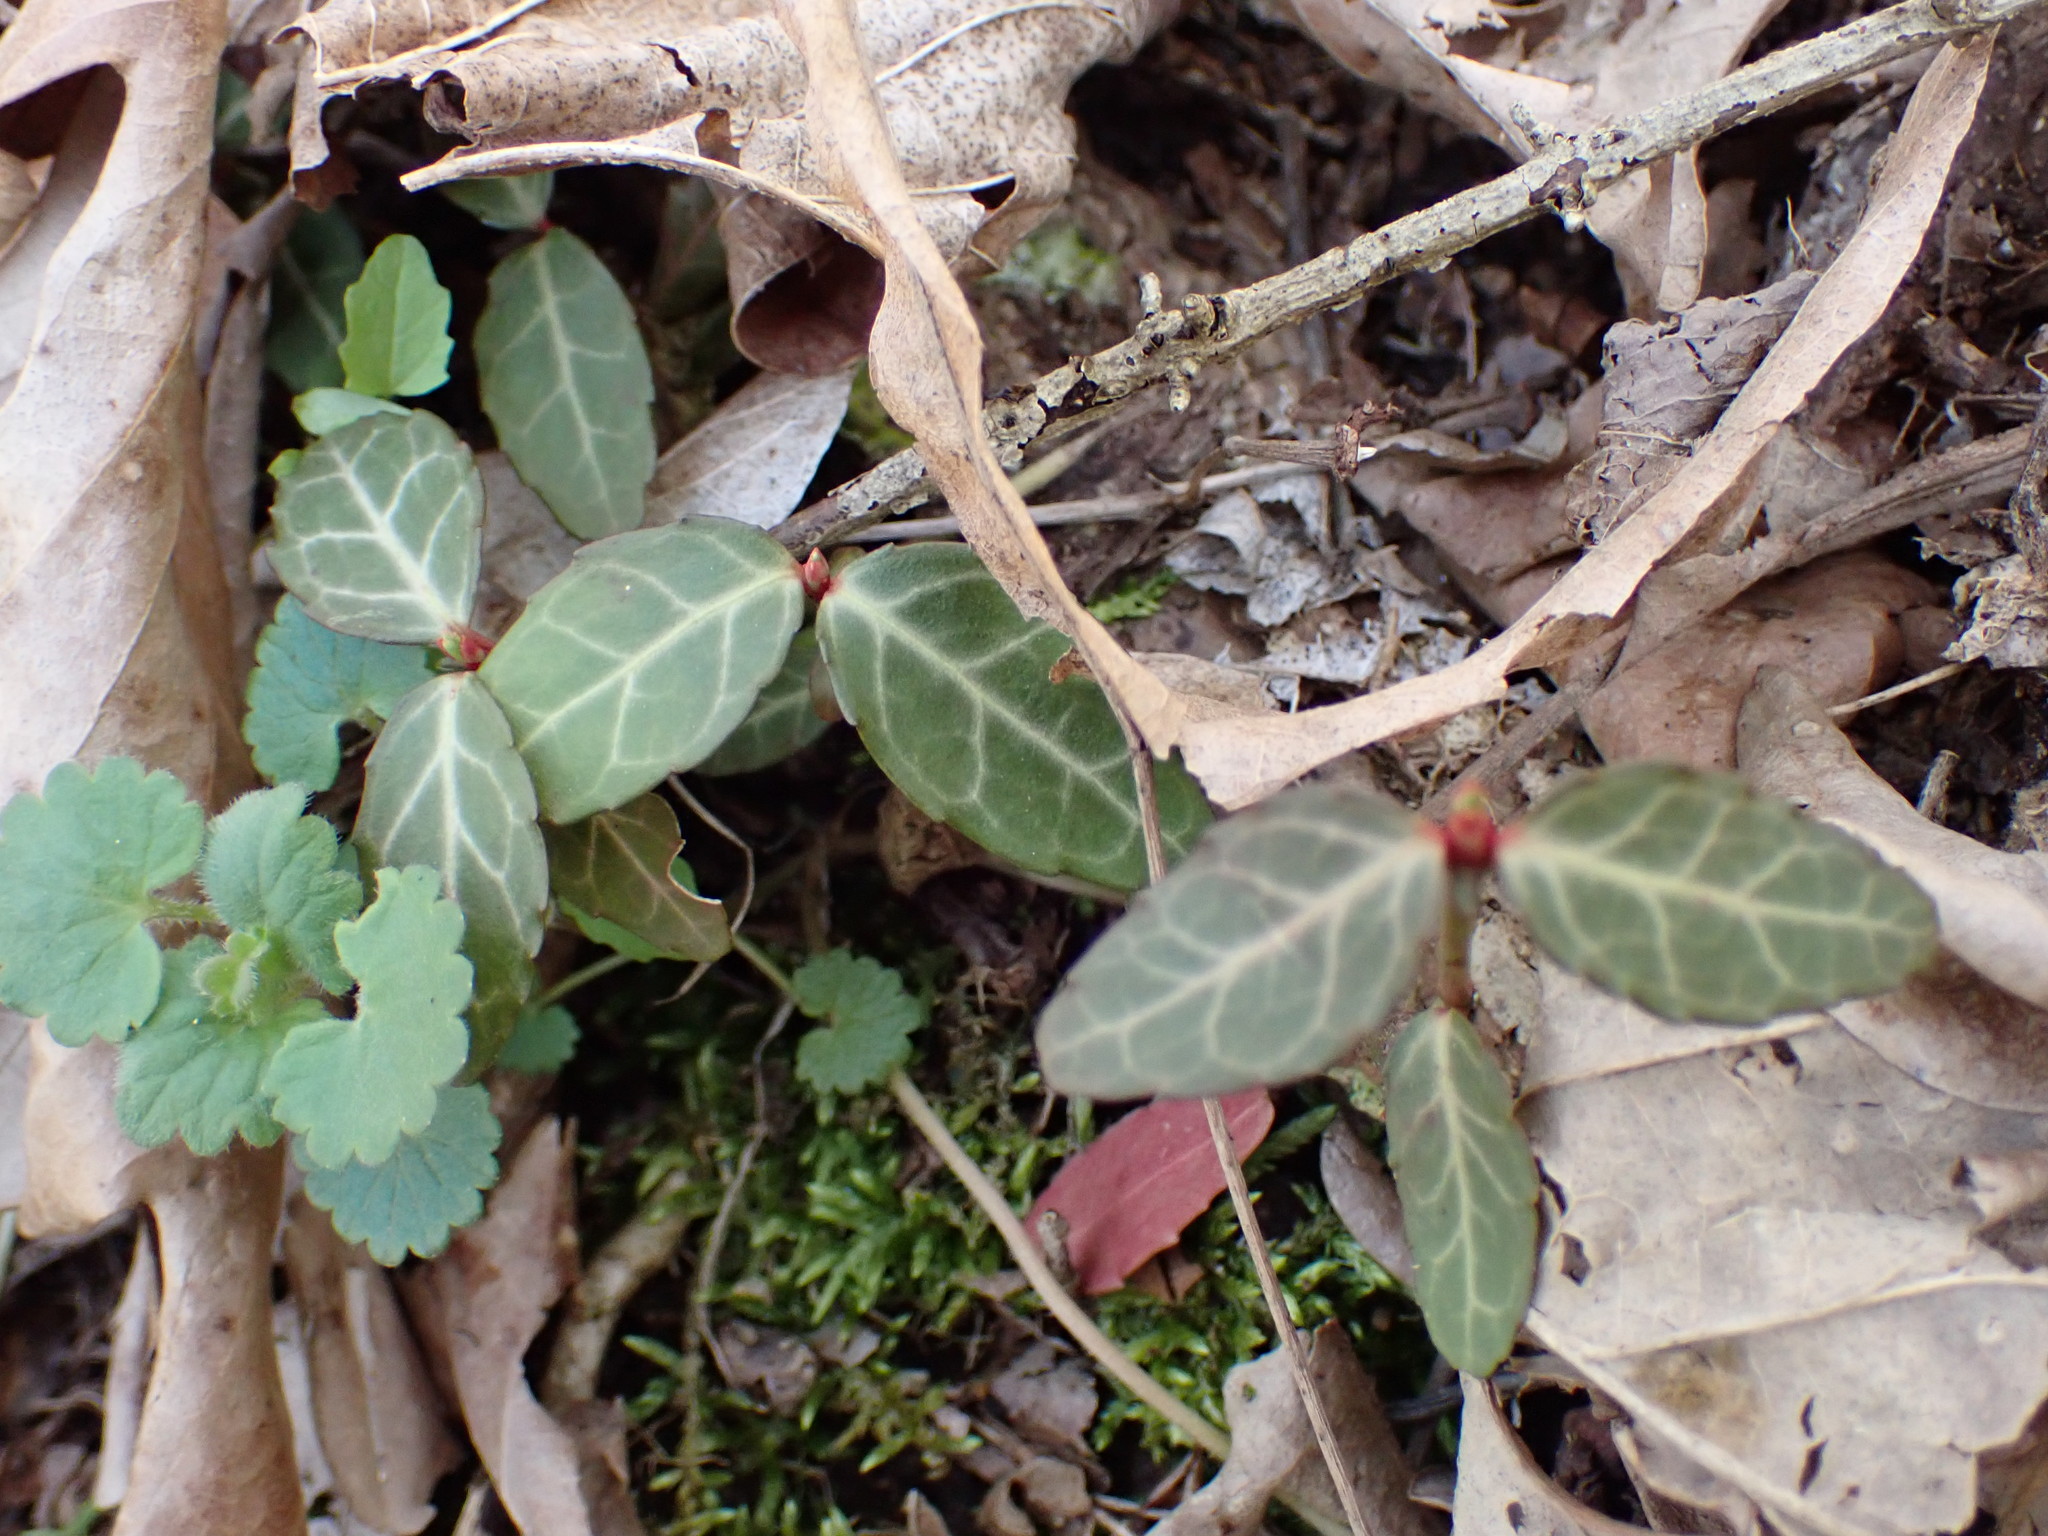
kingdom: Plantae
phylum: Tracheophyta
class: Magnoliopsida
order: Celastrales
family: Celastraceae
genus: Euonymus
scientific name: Euonymus fortunei
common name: Climbing euonymus
